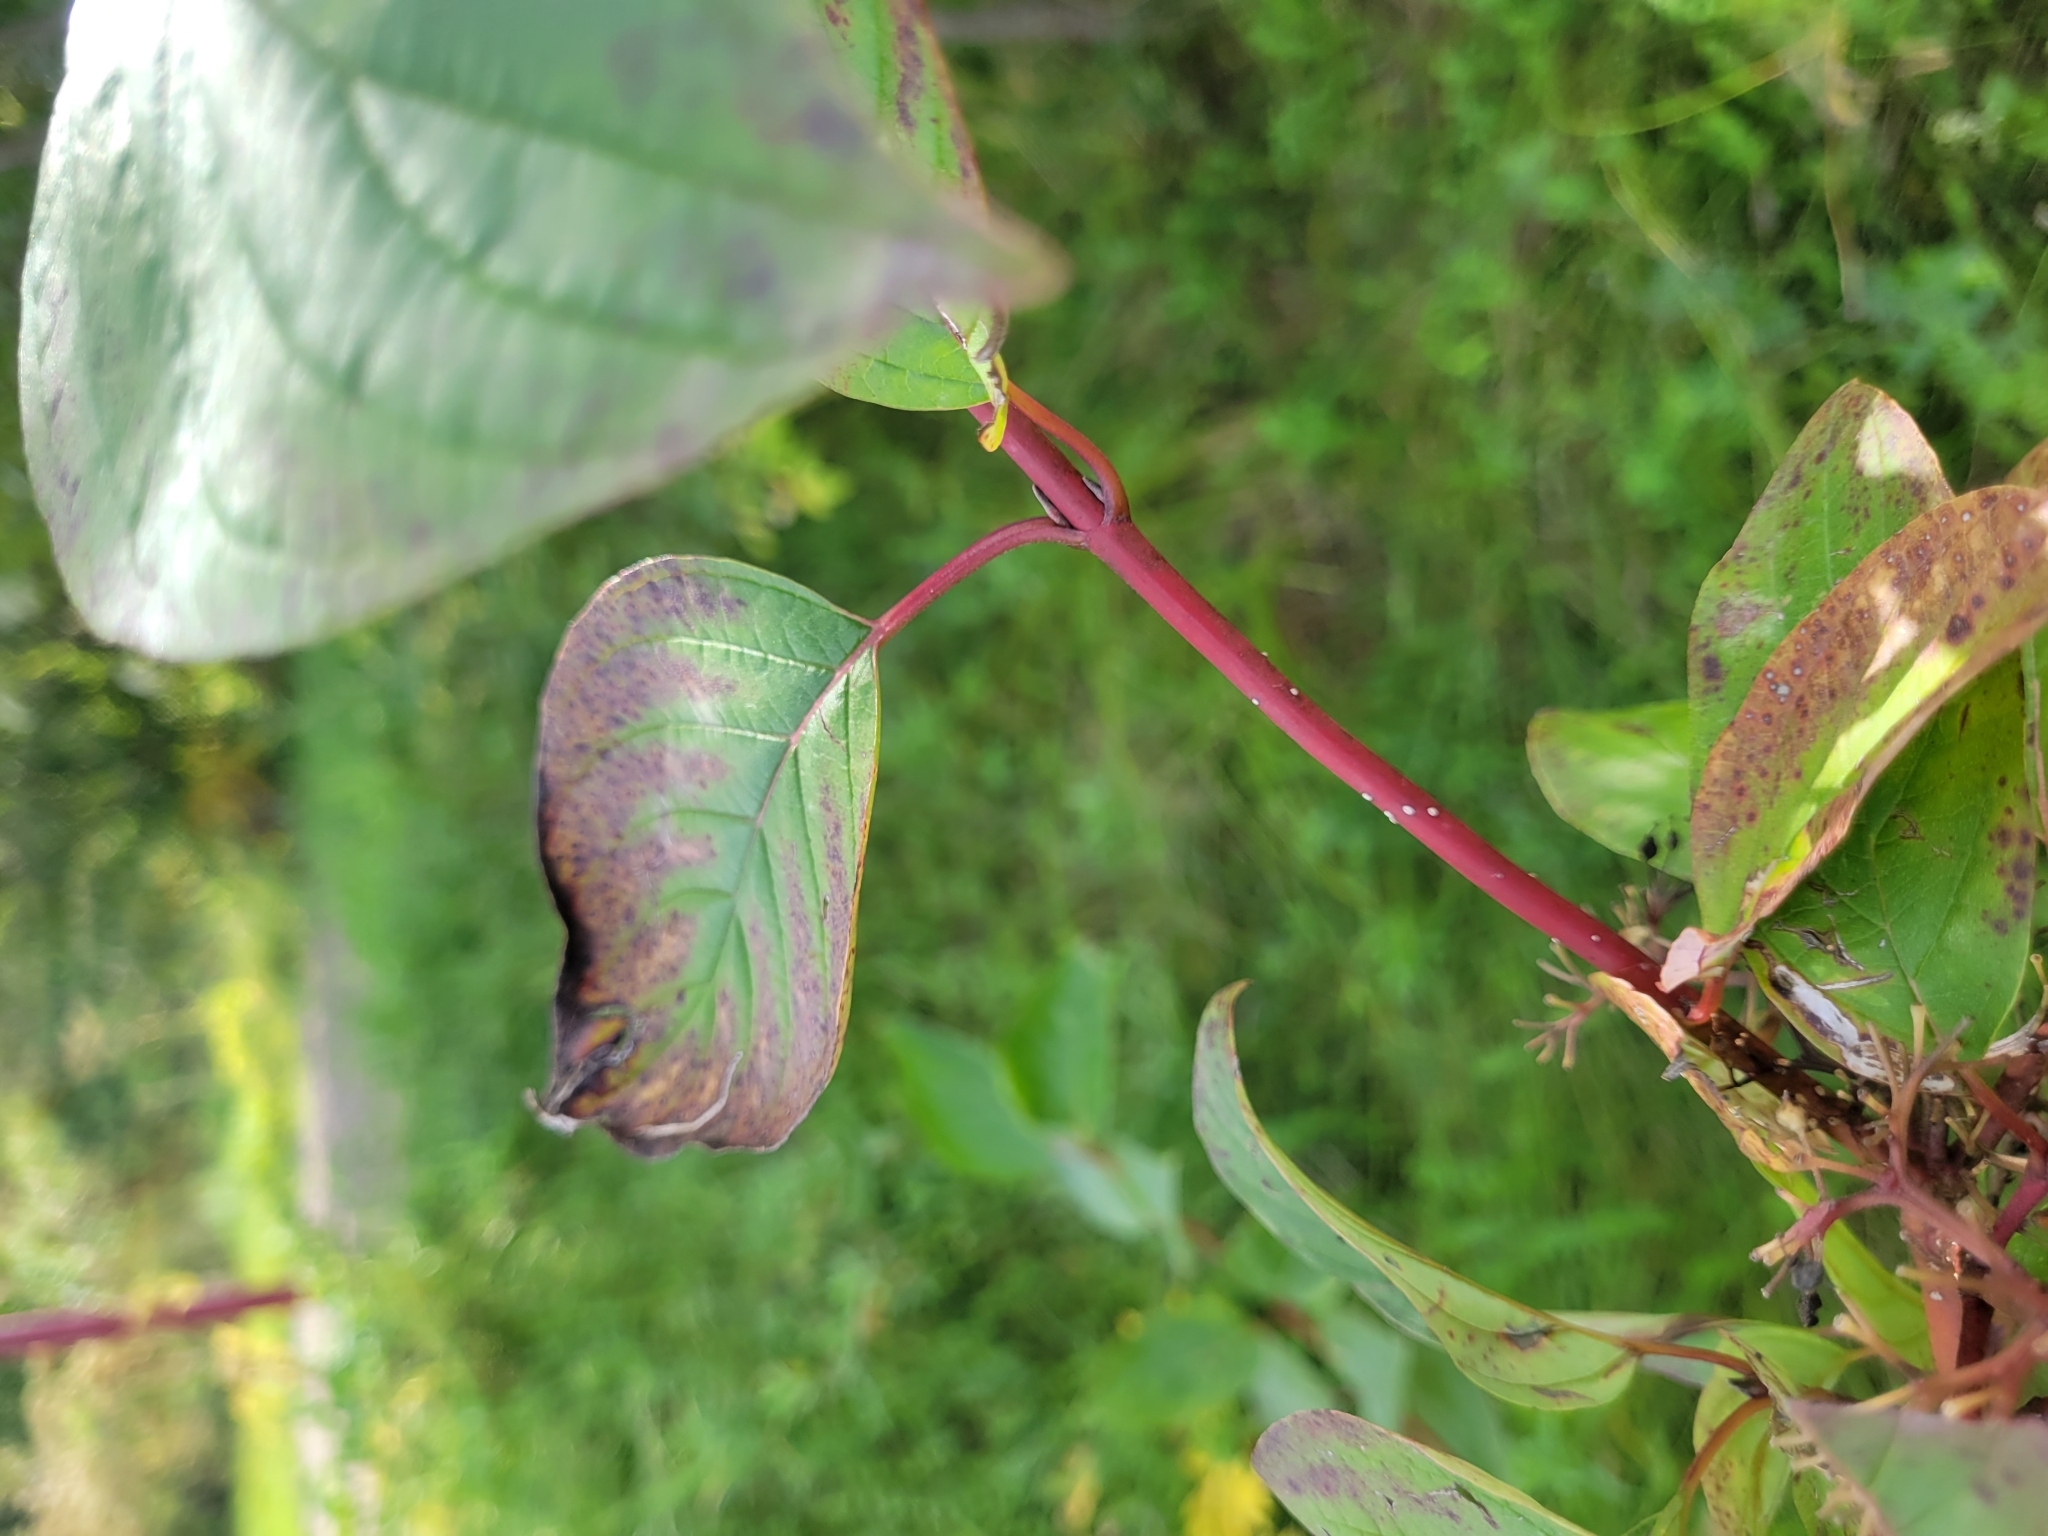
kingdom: Plantae
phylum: Tracheophyta
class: Magnoliopsida
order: Cornales
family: Cornaceae
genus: Cornus
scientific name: Cornus sericea
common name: Red-osier dogwood
